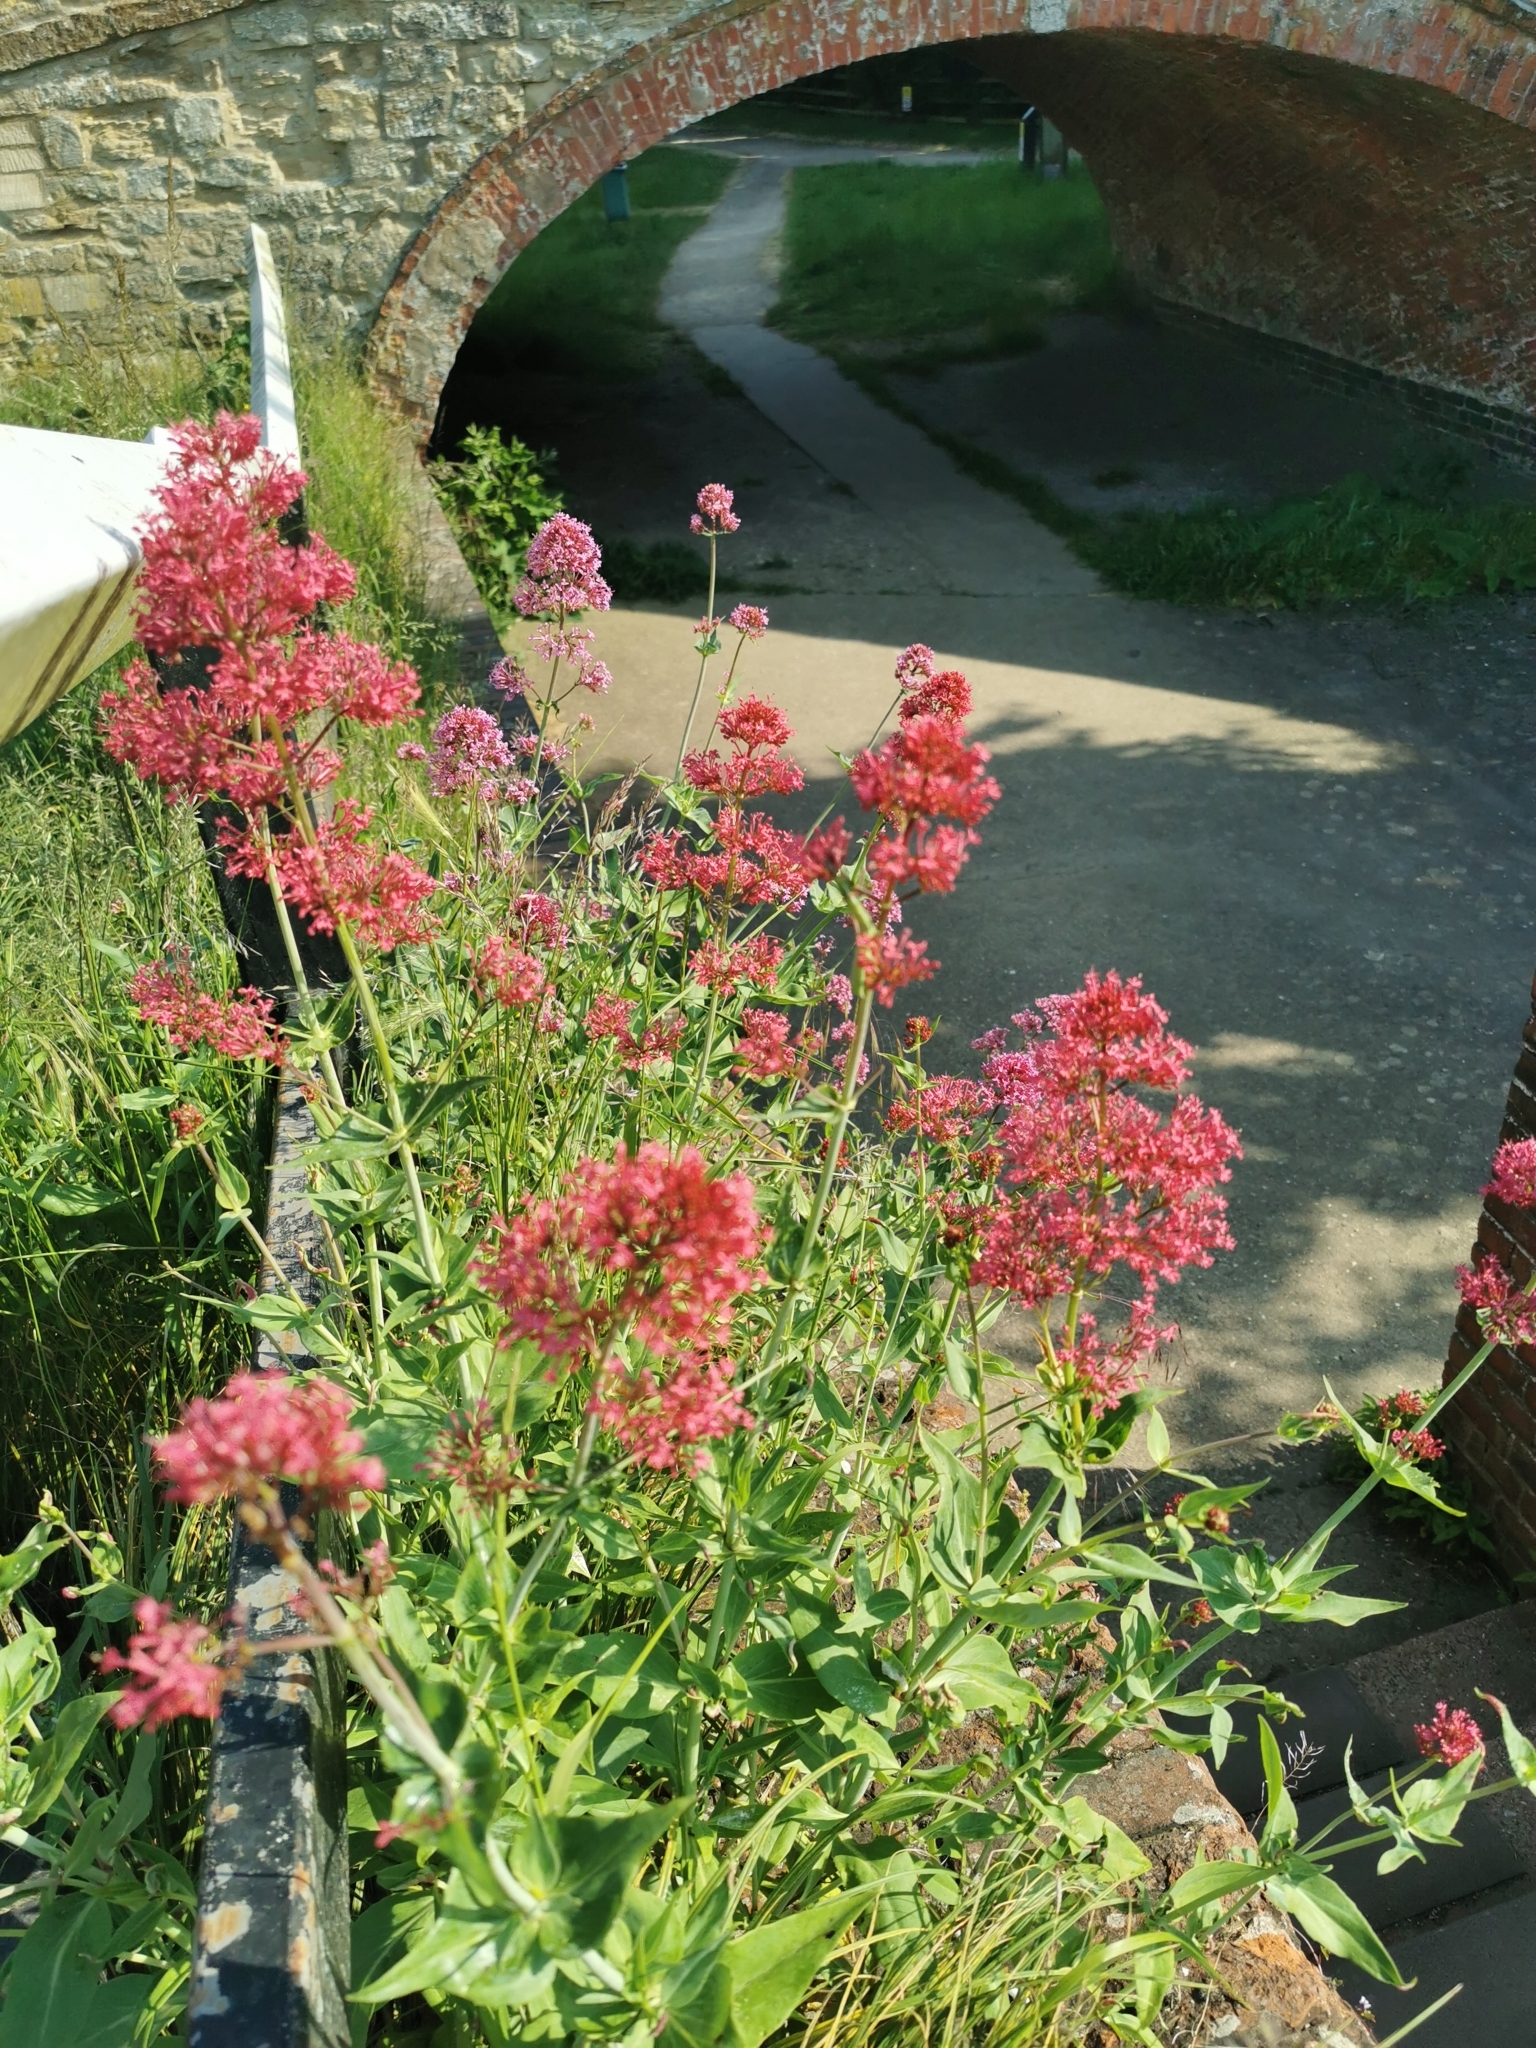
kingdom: Plantae
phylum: Tracheophyta
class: Magnoliopsida
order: Dipsacales
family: Caprifoliaceae
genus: Centranthus
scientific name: Centranthus ruber
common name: Red valerian
